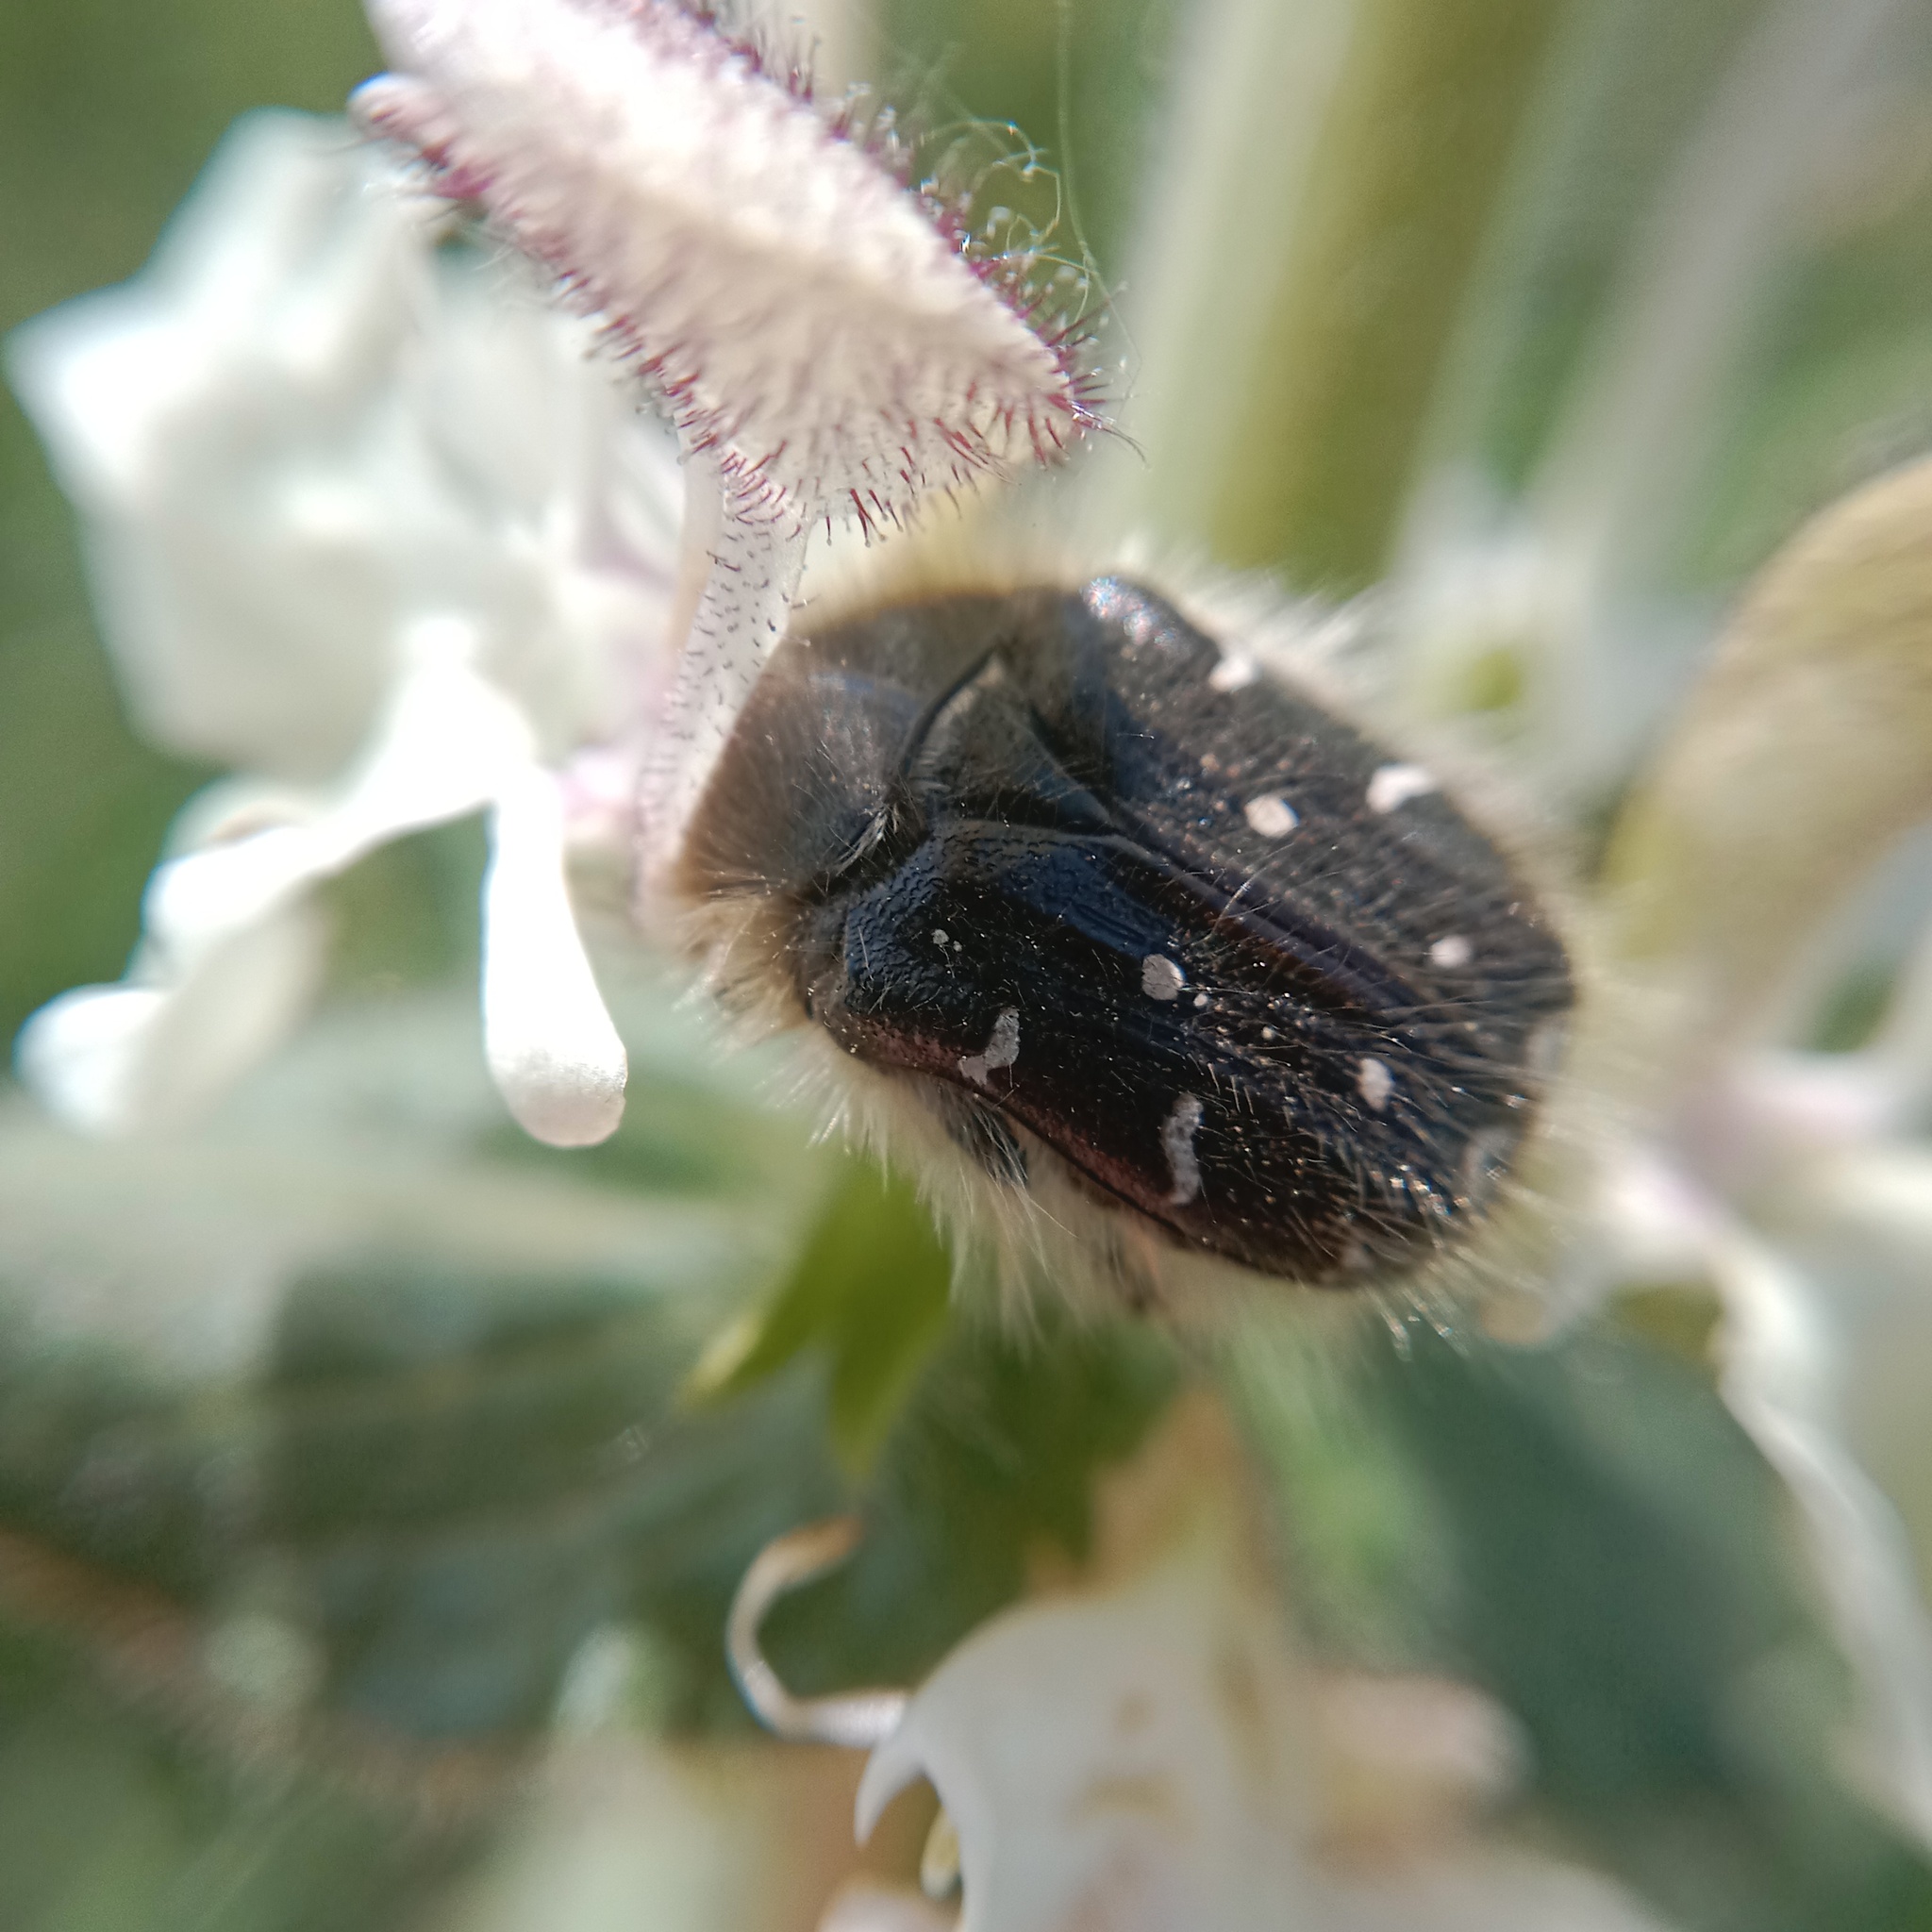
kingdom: Animalia
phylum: Arthropoda
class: Insecta
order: Coleoptera
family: Scarabaeidae
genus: Tropinota
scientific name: Tropinota hirta
